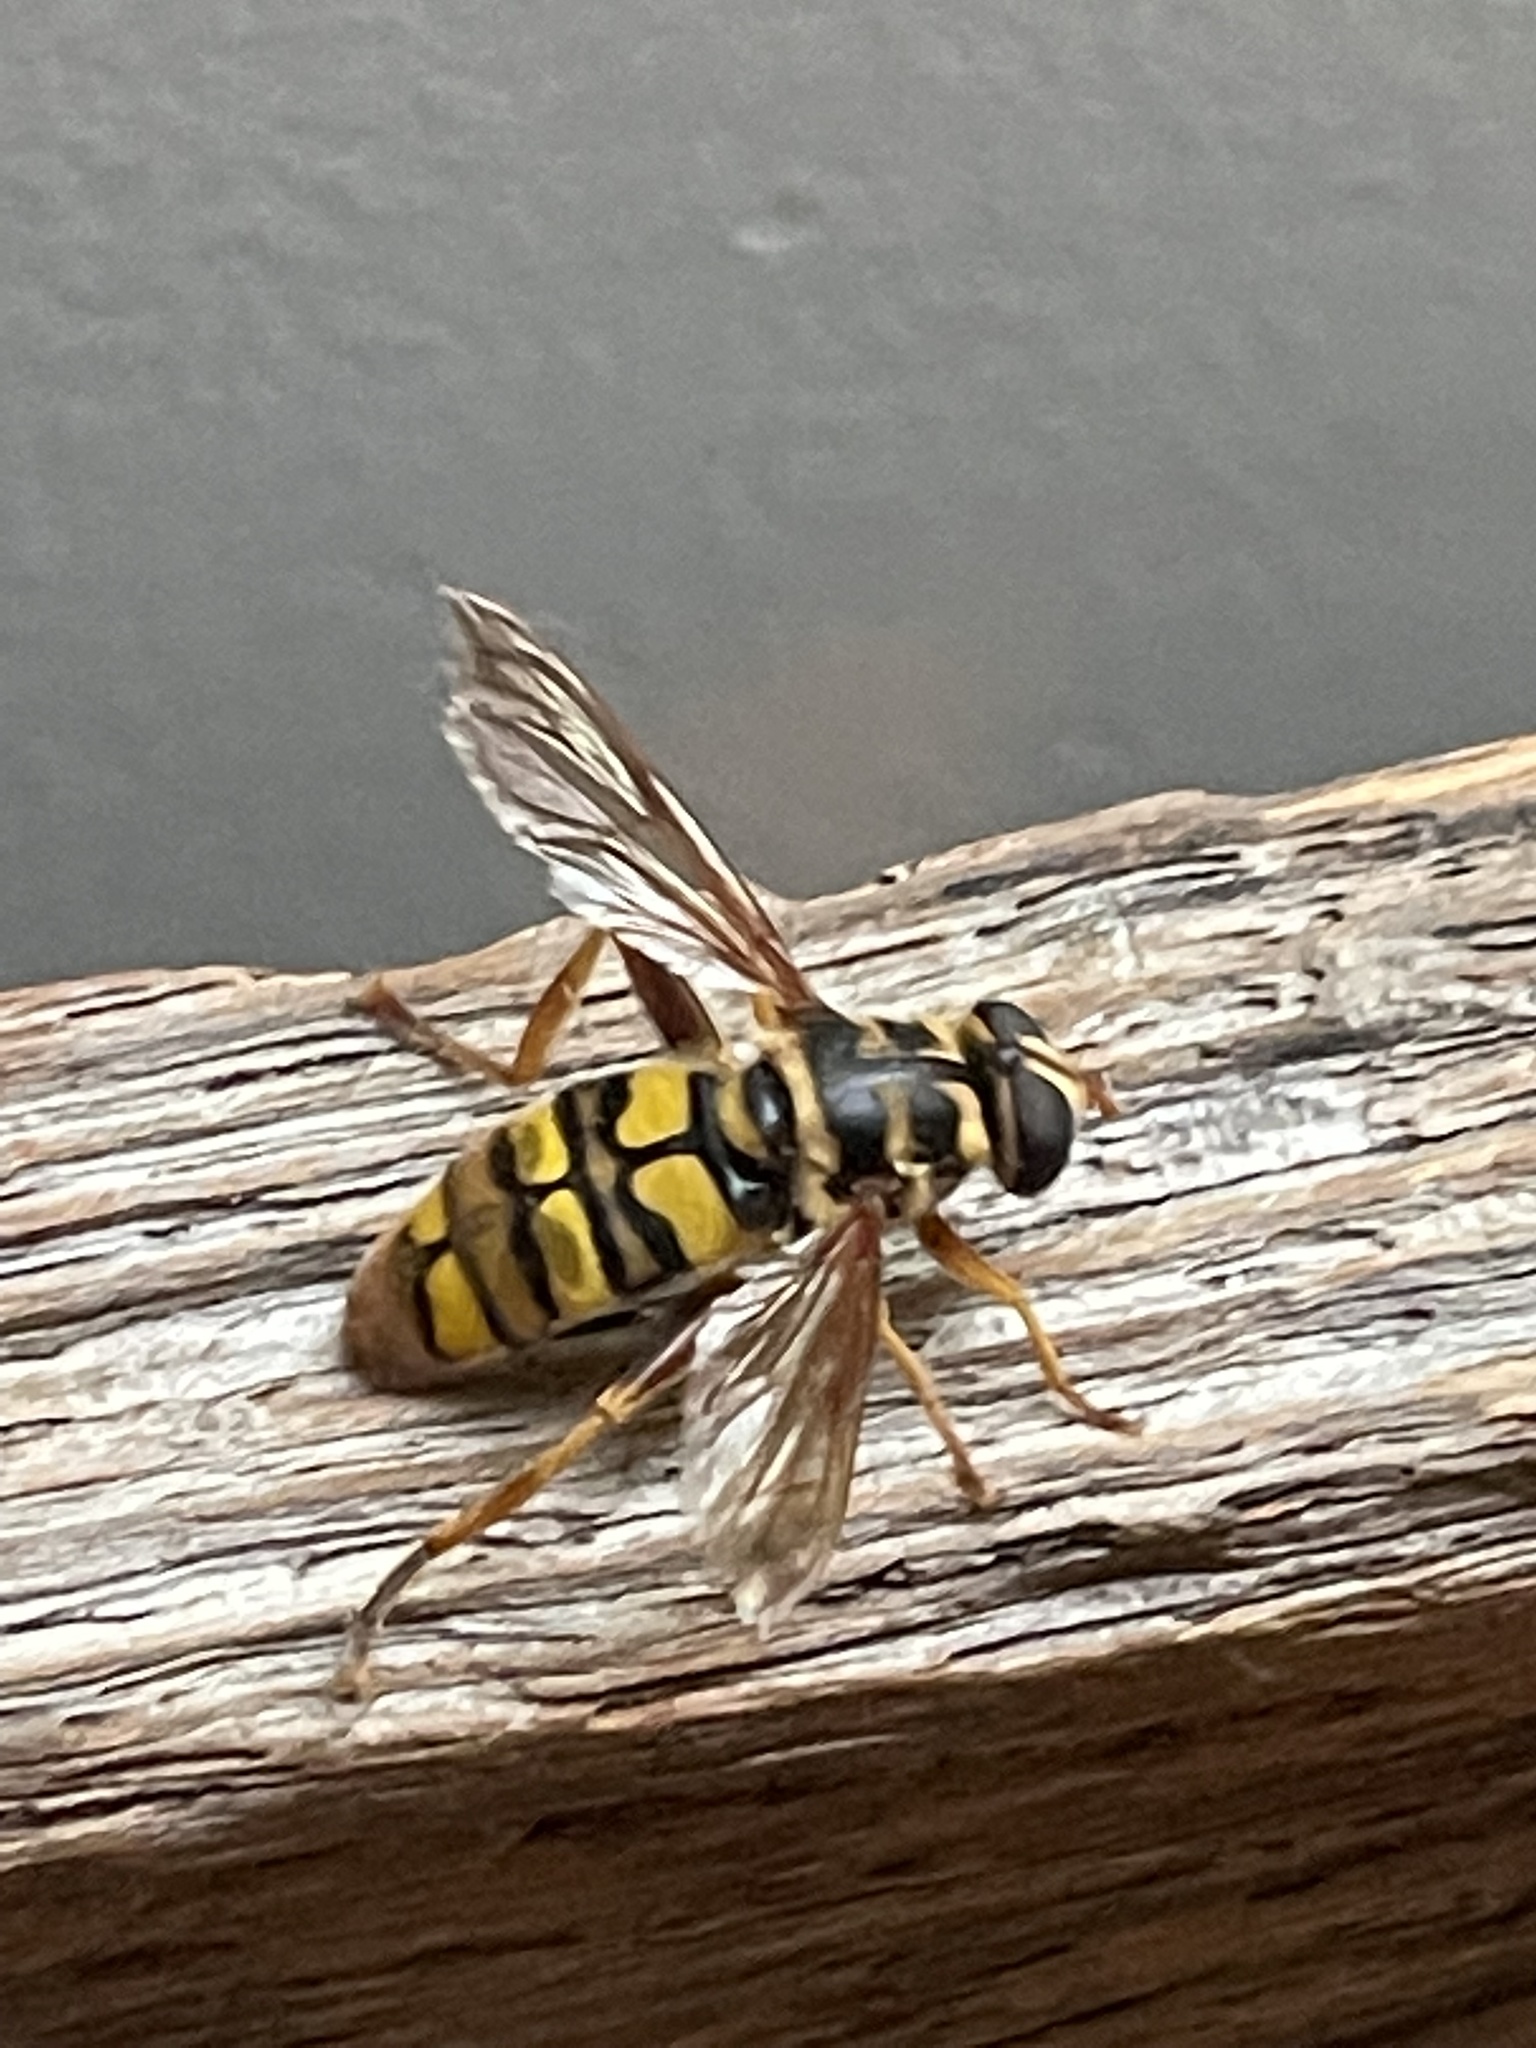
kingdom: Animalia
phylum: Arthropoda
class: Insecta
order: Diptera
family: Syrphidae
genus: Milesia
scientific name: Milesia virginiensis
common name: Virginia giant
